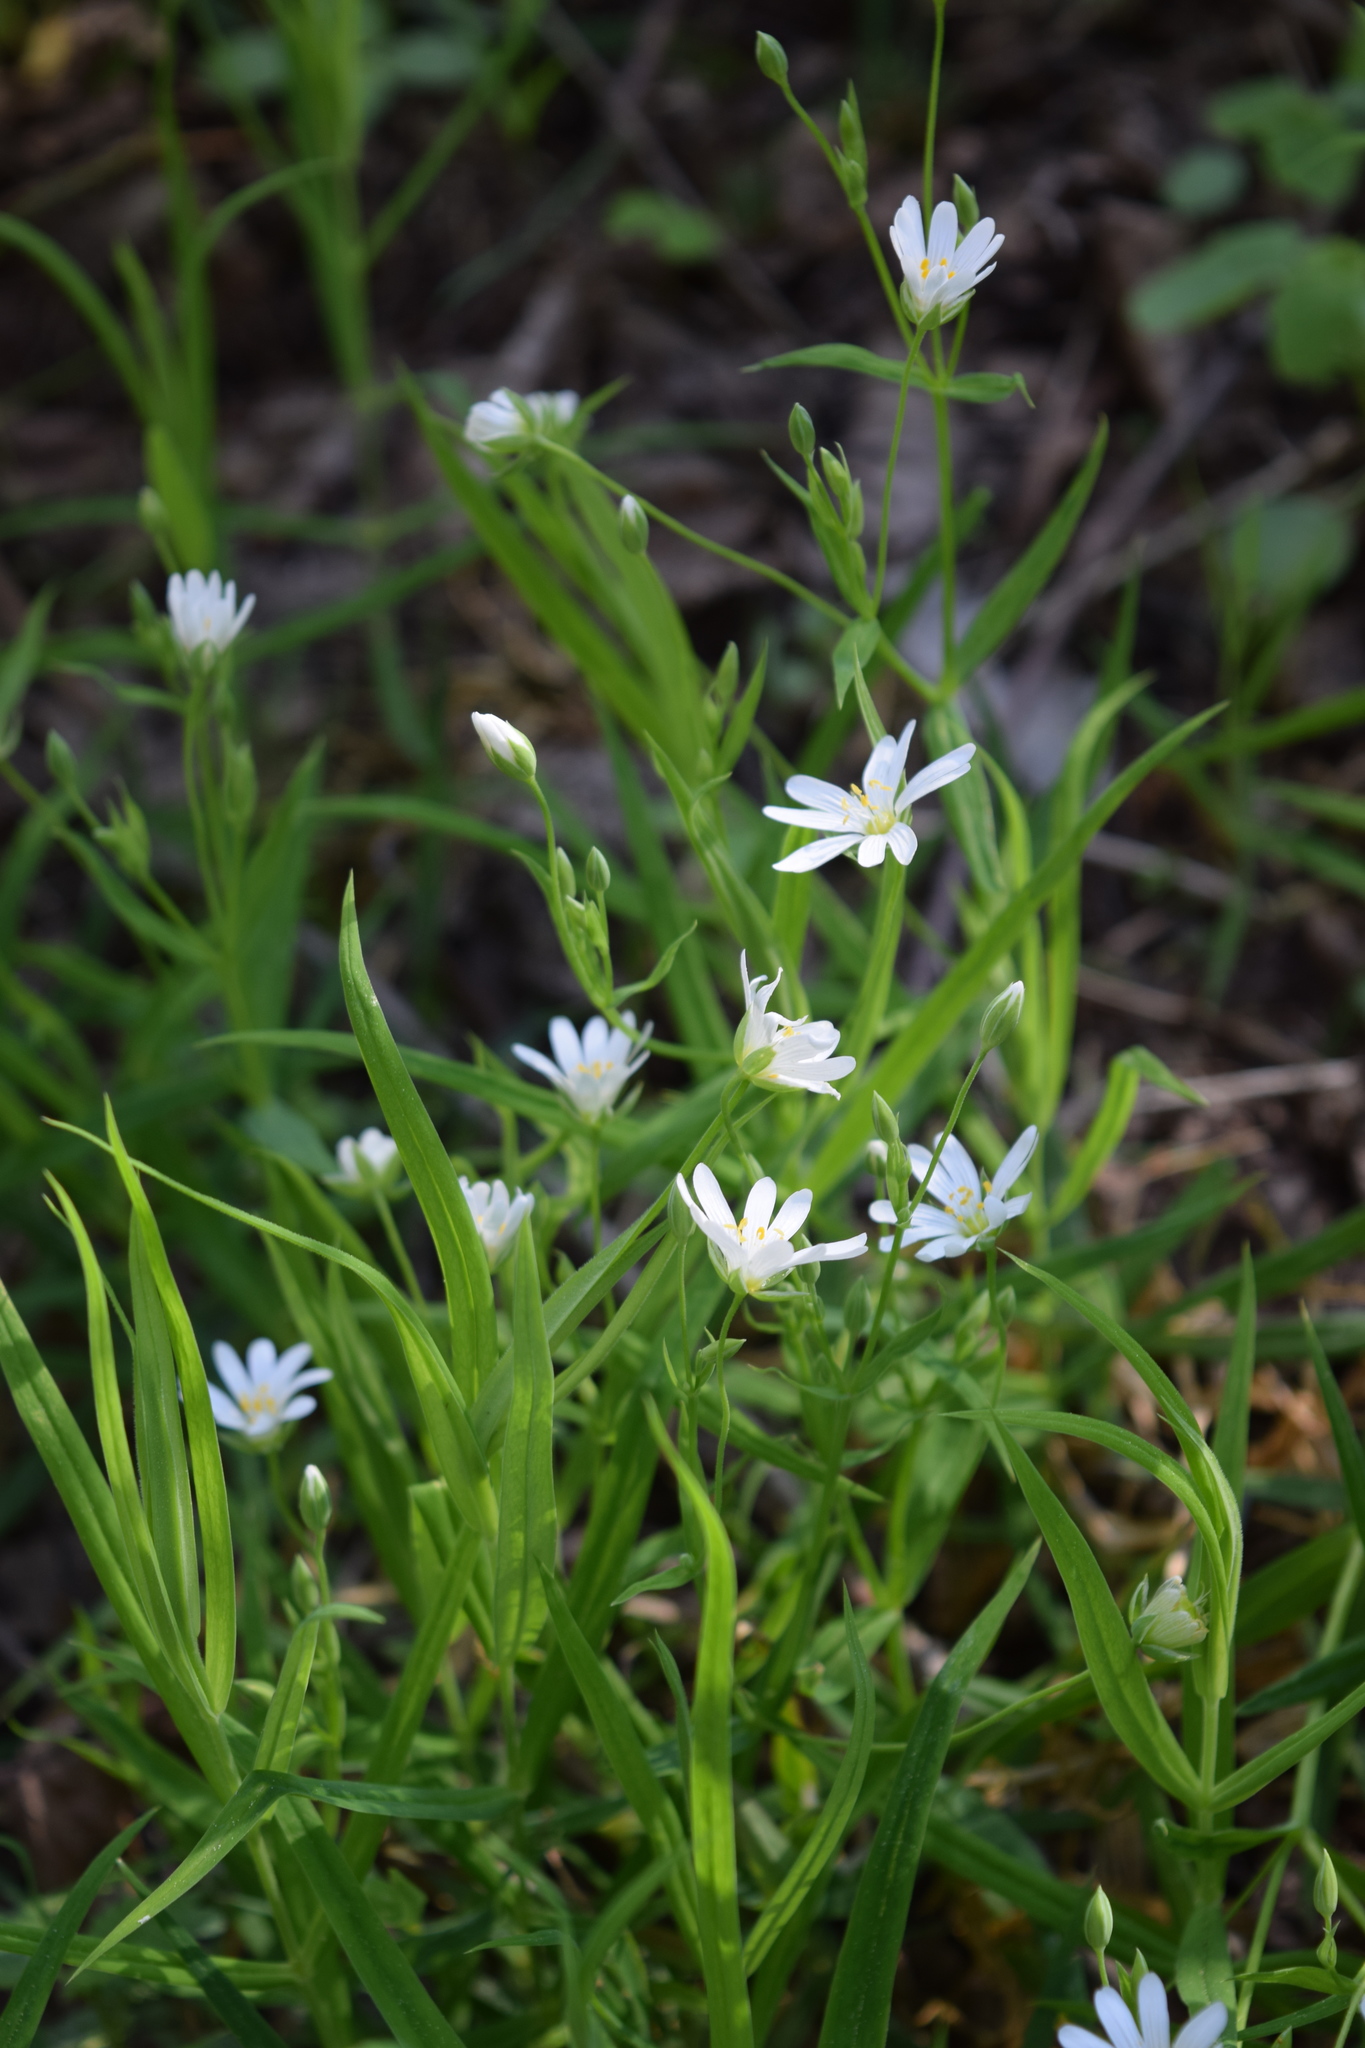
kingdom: Plantae
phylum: Tracheophyta
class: Magnoliopsida
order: Caryophyllales
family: Caryophyllaceae
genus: Rabelera
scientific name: Rabelera holostea
